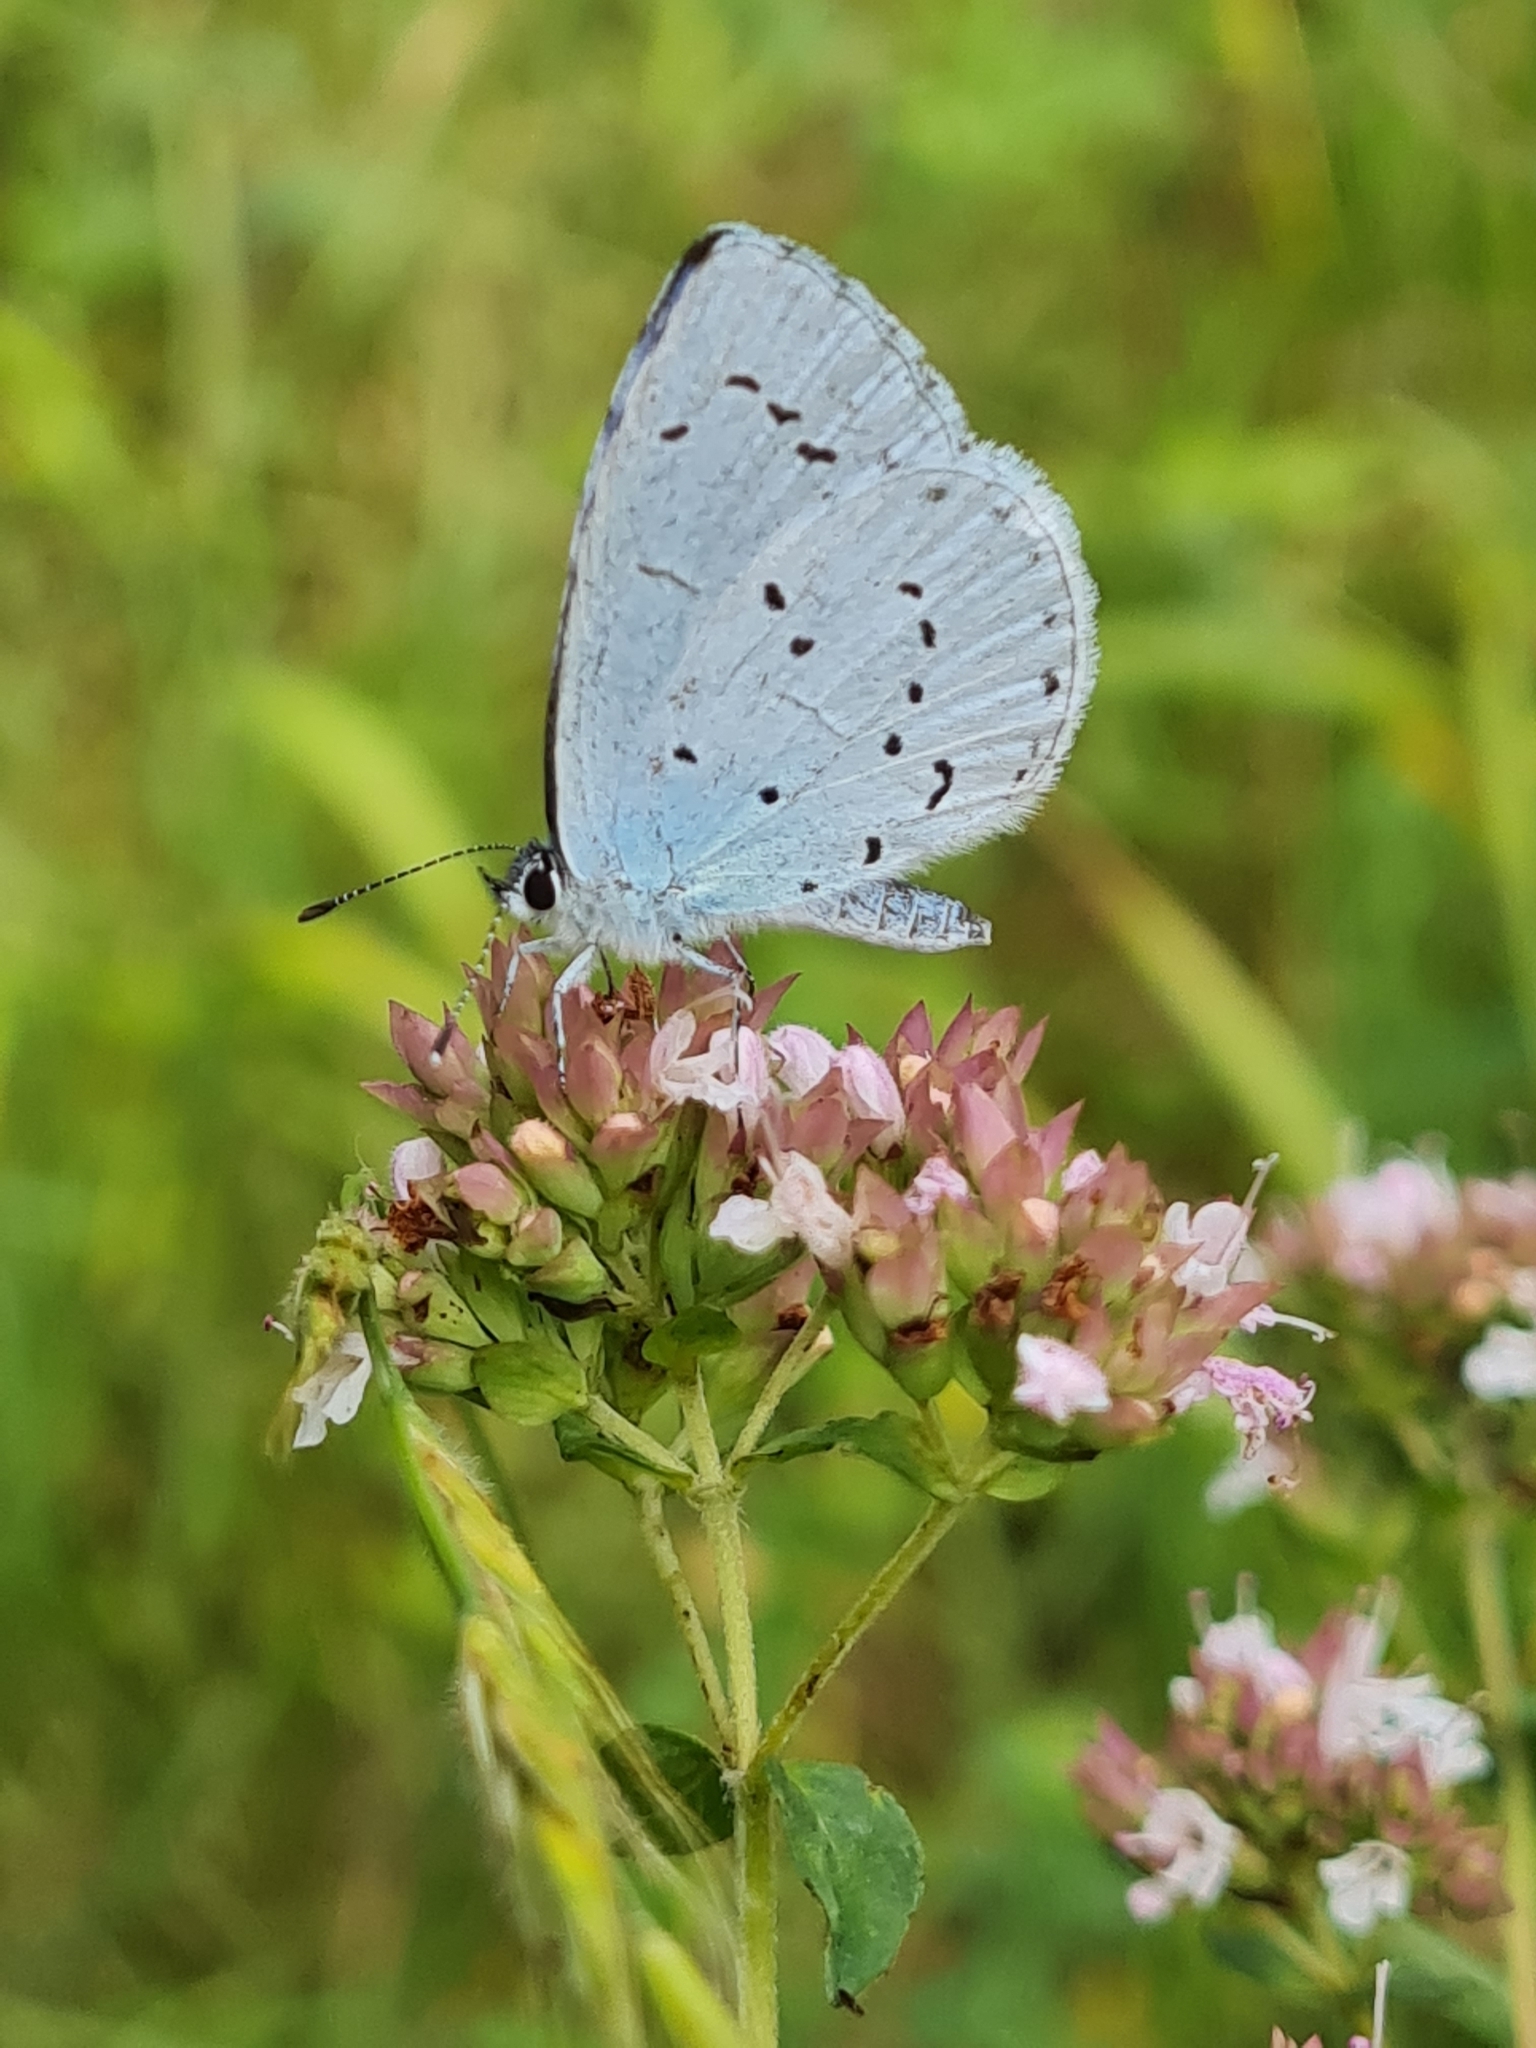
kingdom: Animalia
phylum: Arthropoda
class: Insecta
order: Lepidoptera
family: Lycaenidae
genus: Celastrina
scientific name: Celastrina argiolus
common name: Holly blue
